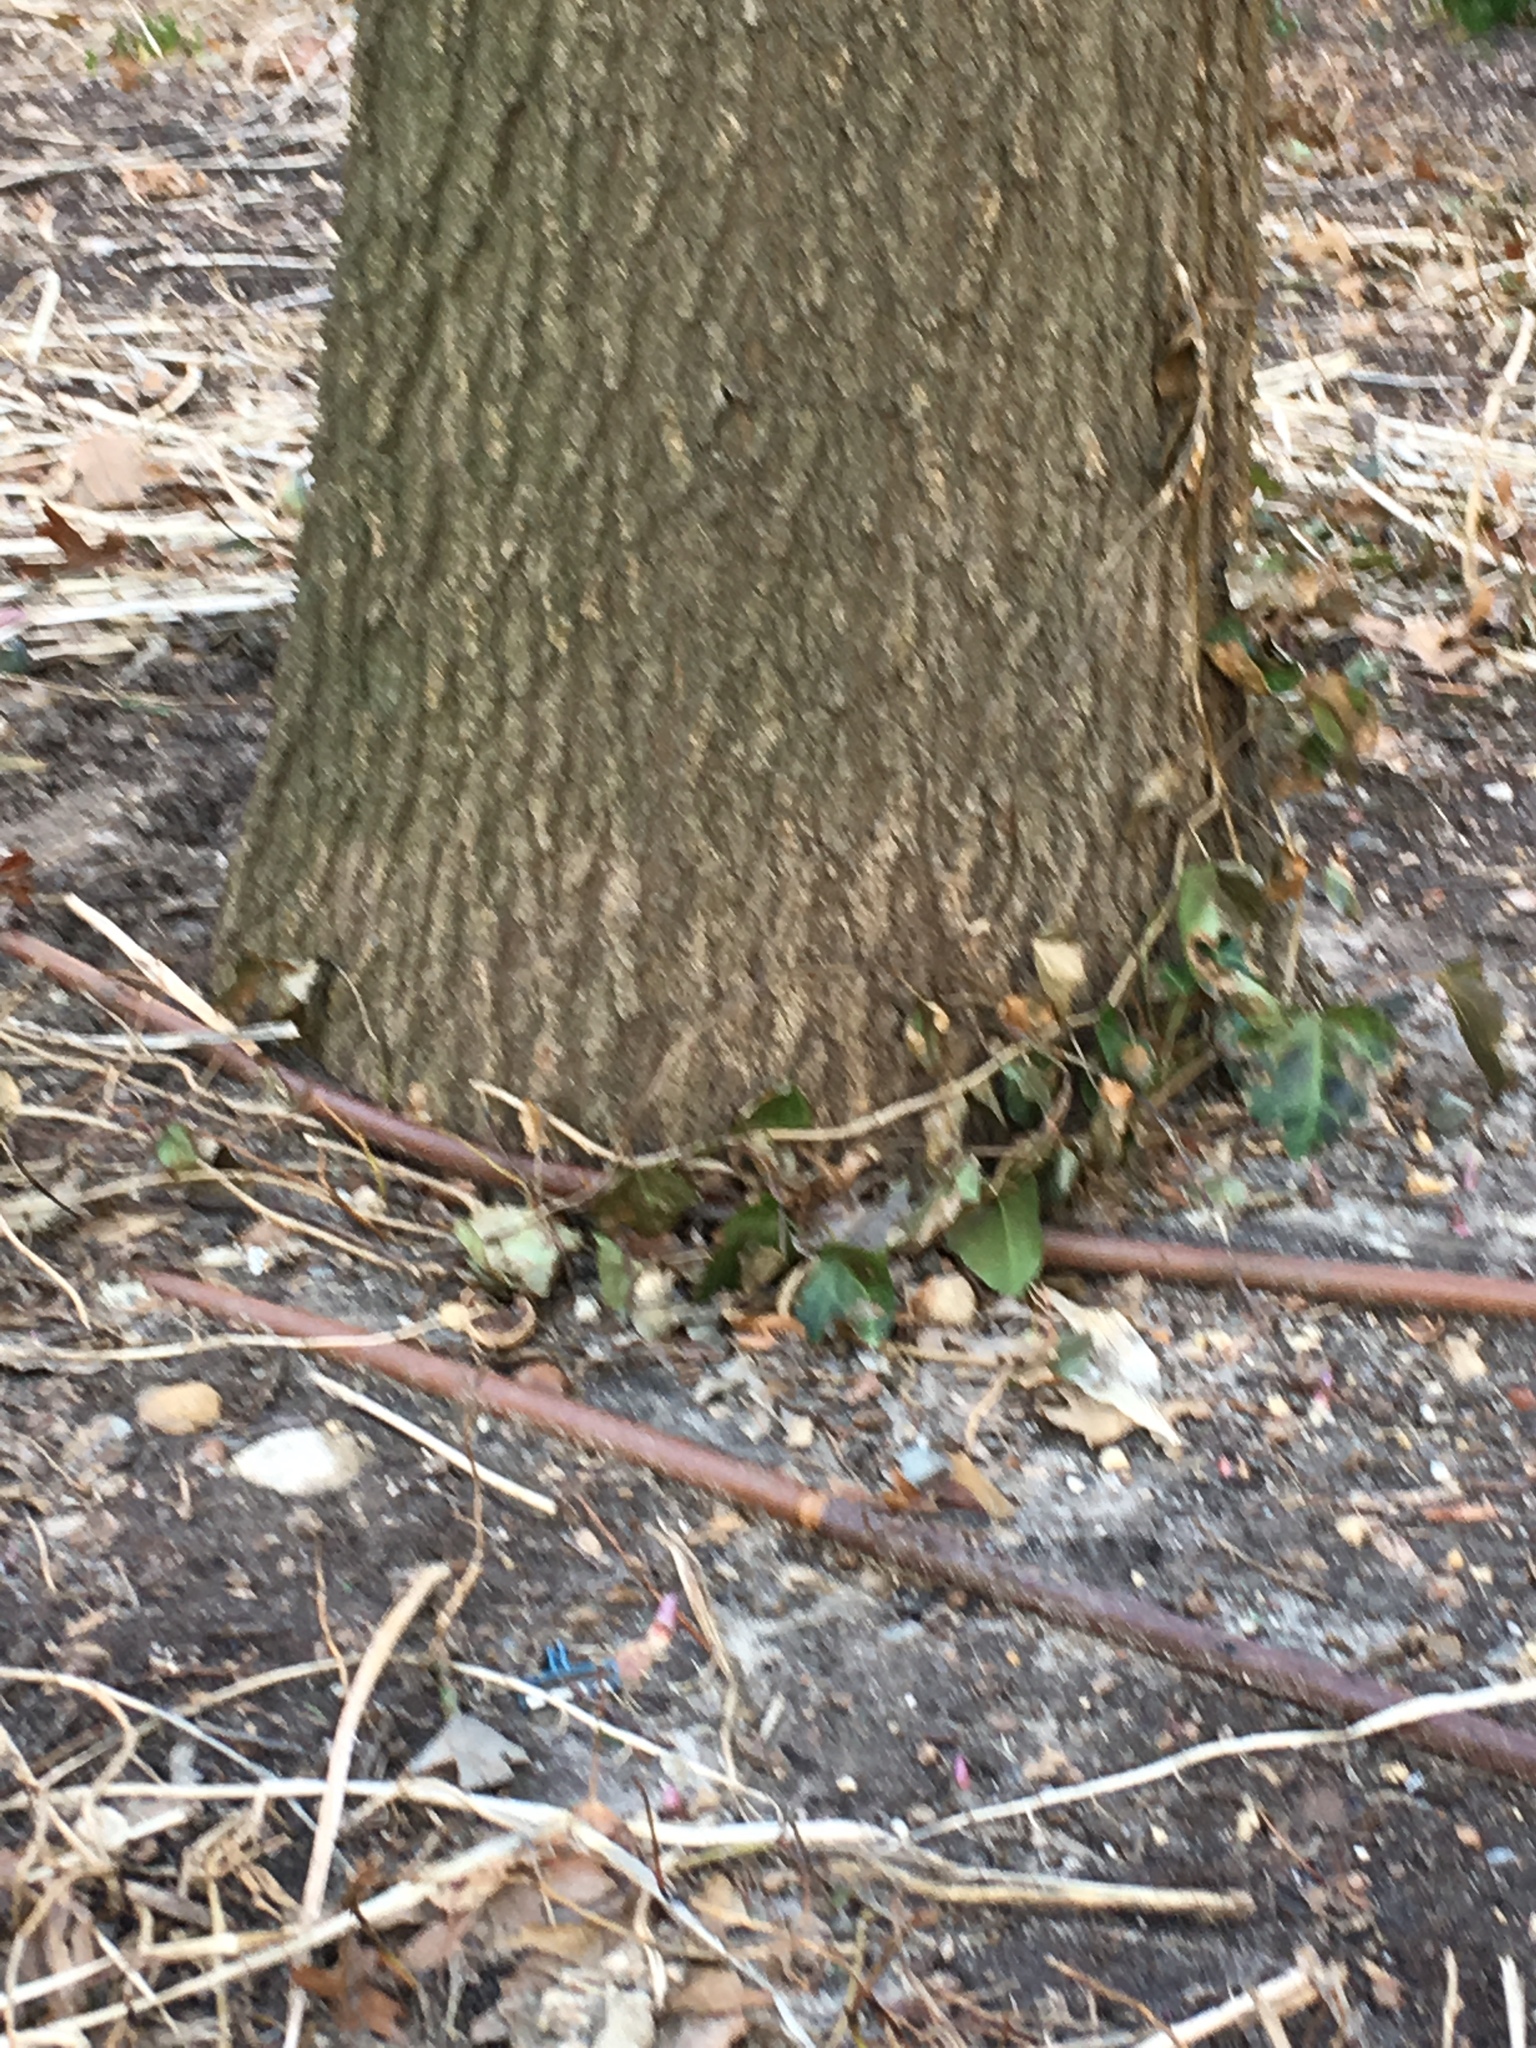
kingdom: Plantae
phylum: Tracheophyta
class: Magnoliopsida
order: Apiales
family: Araliaceae
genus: Hedera
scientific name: Hedera helix
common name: Ivy
